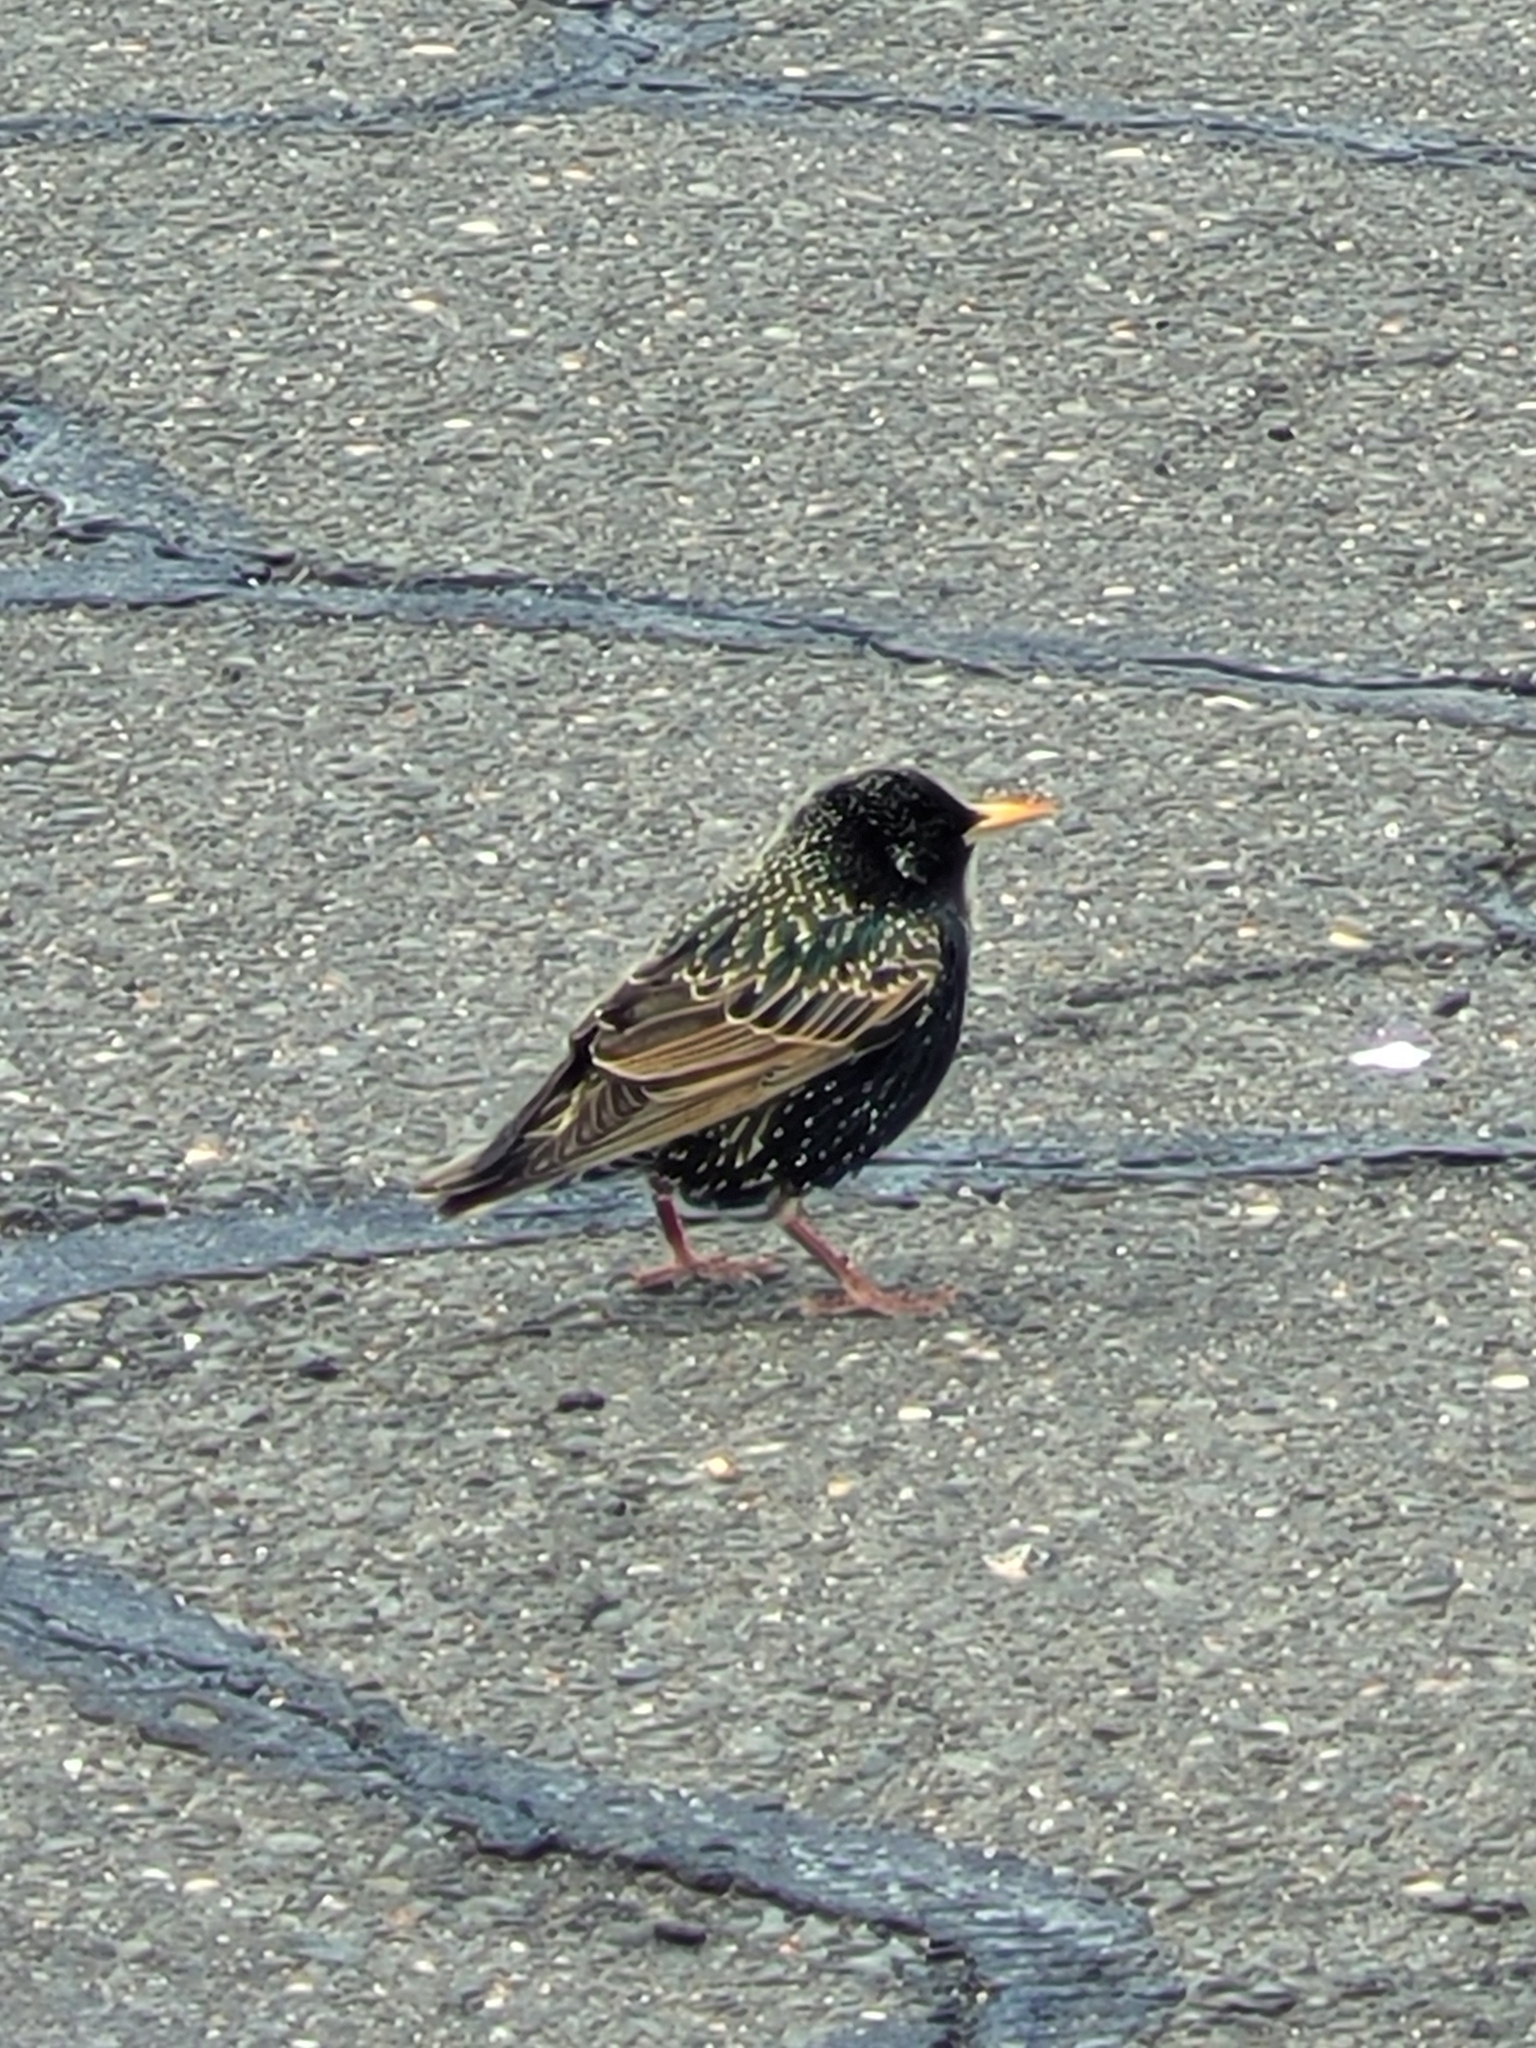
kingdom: Animalia
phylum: Chordata
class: Aves
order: Passeriformes
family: Sturnidae
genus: Sturnus
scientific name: Sturnus vulgaris
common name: Common starling
